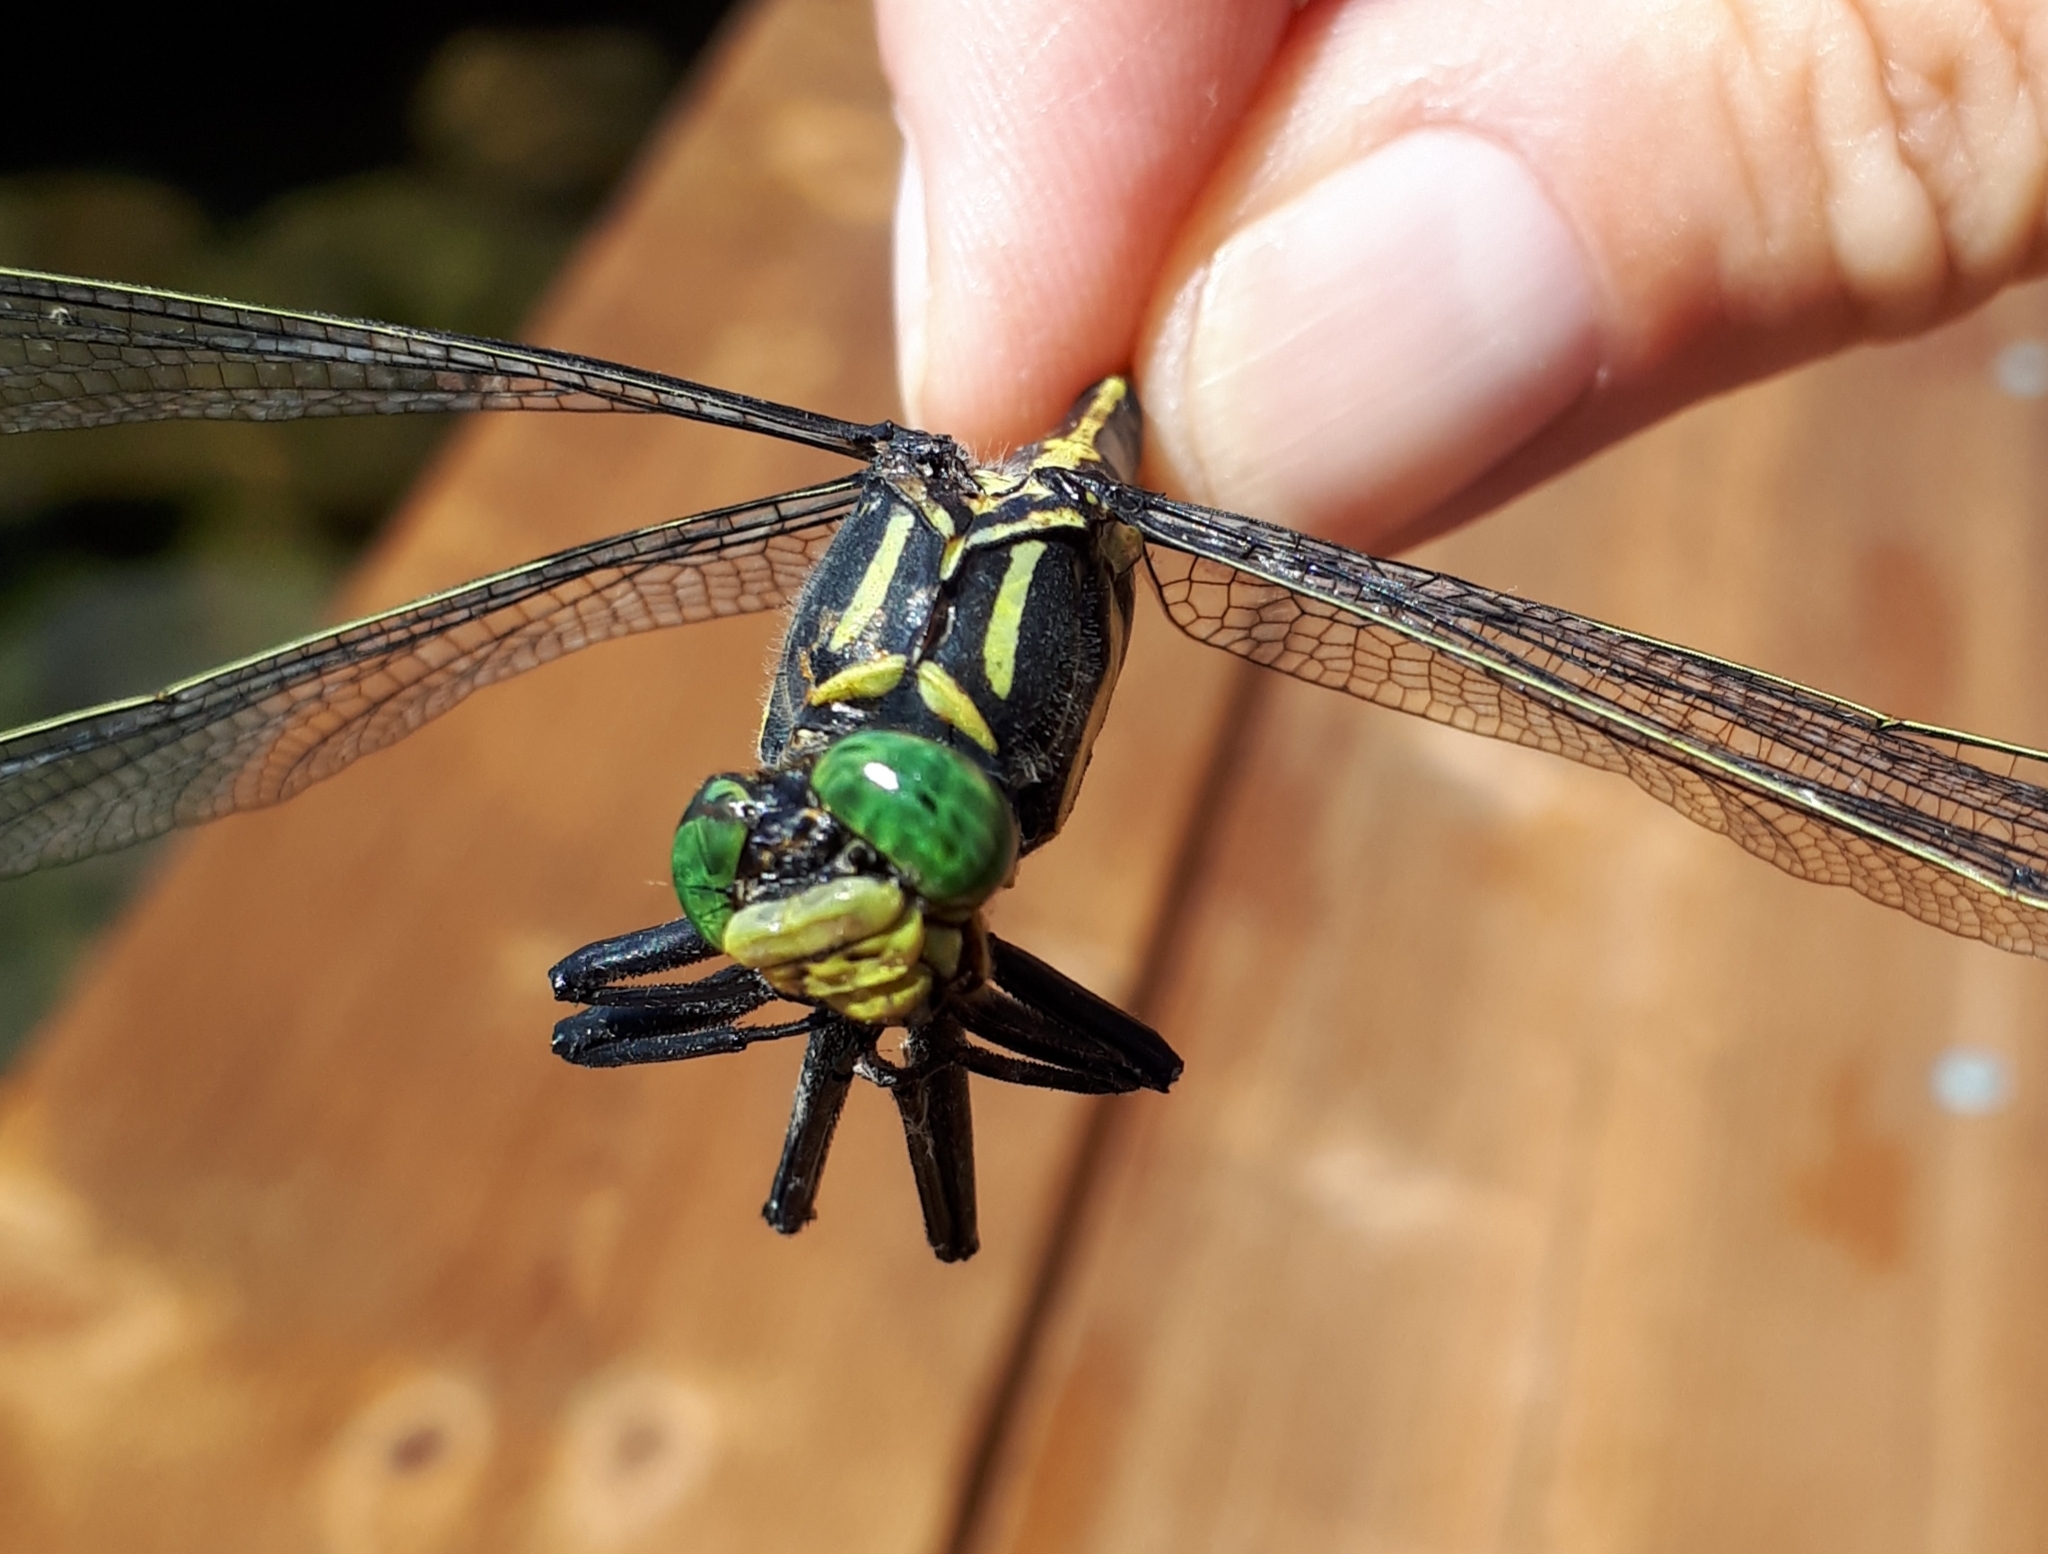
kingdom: Animalia
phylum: Arthropoda
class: Insecta
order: Odonata
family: Gomphidae
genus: Hagenius
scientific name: Hagenius brevistylus
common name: Dragonhunter
